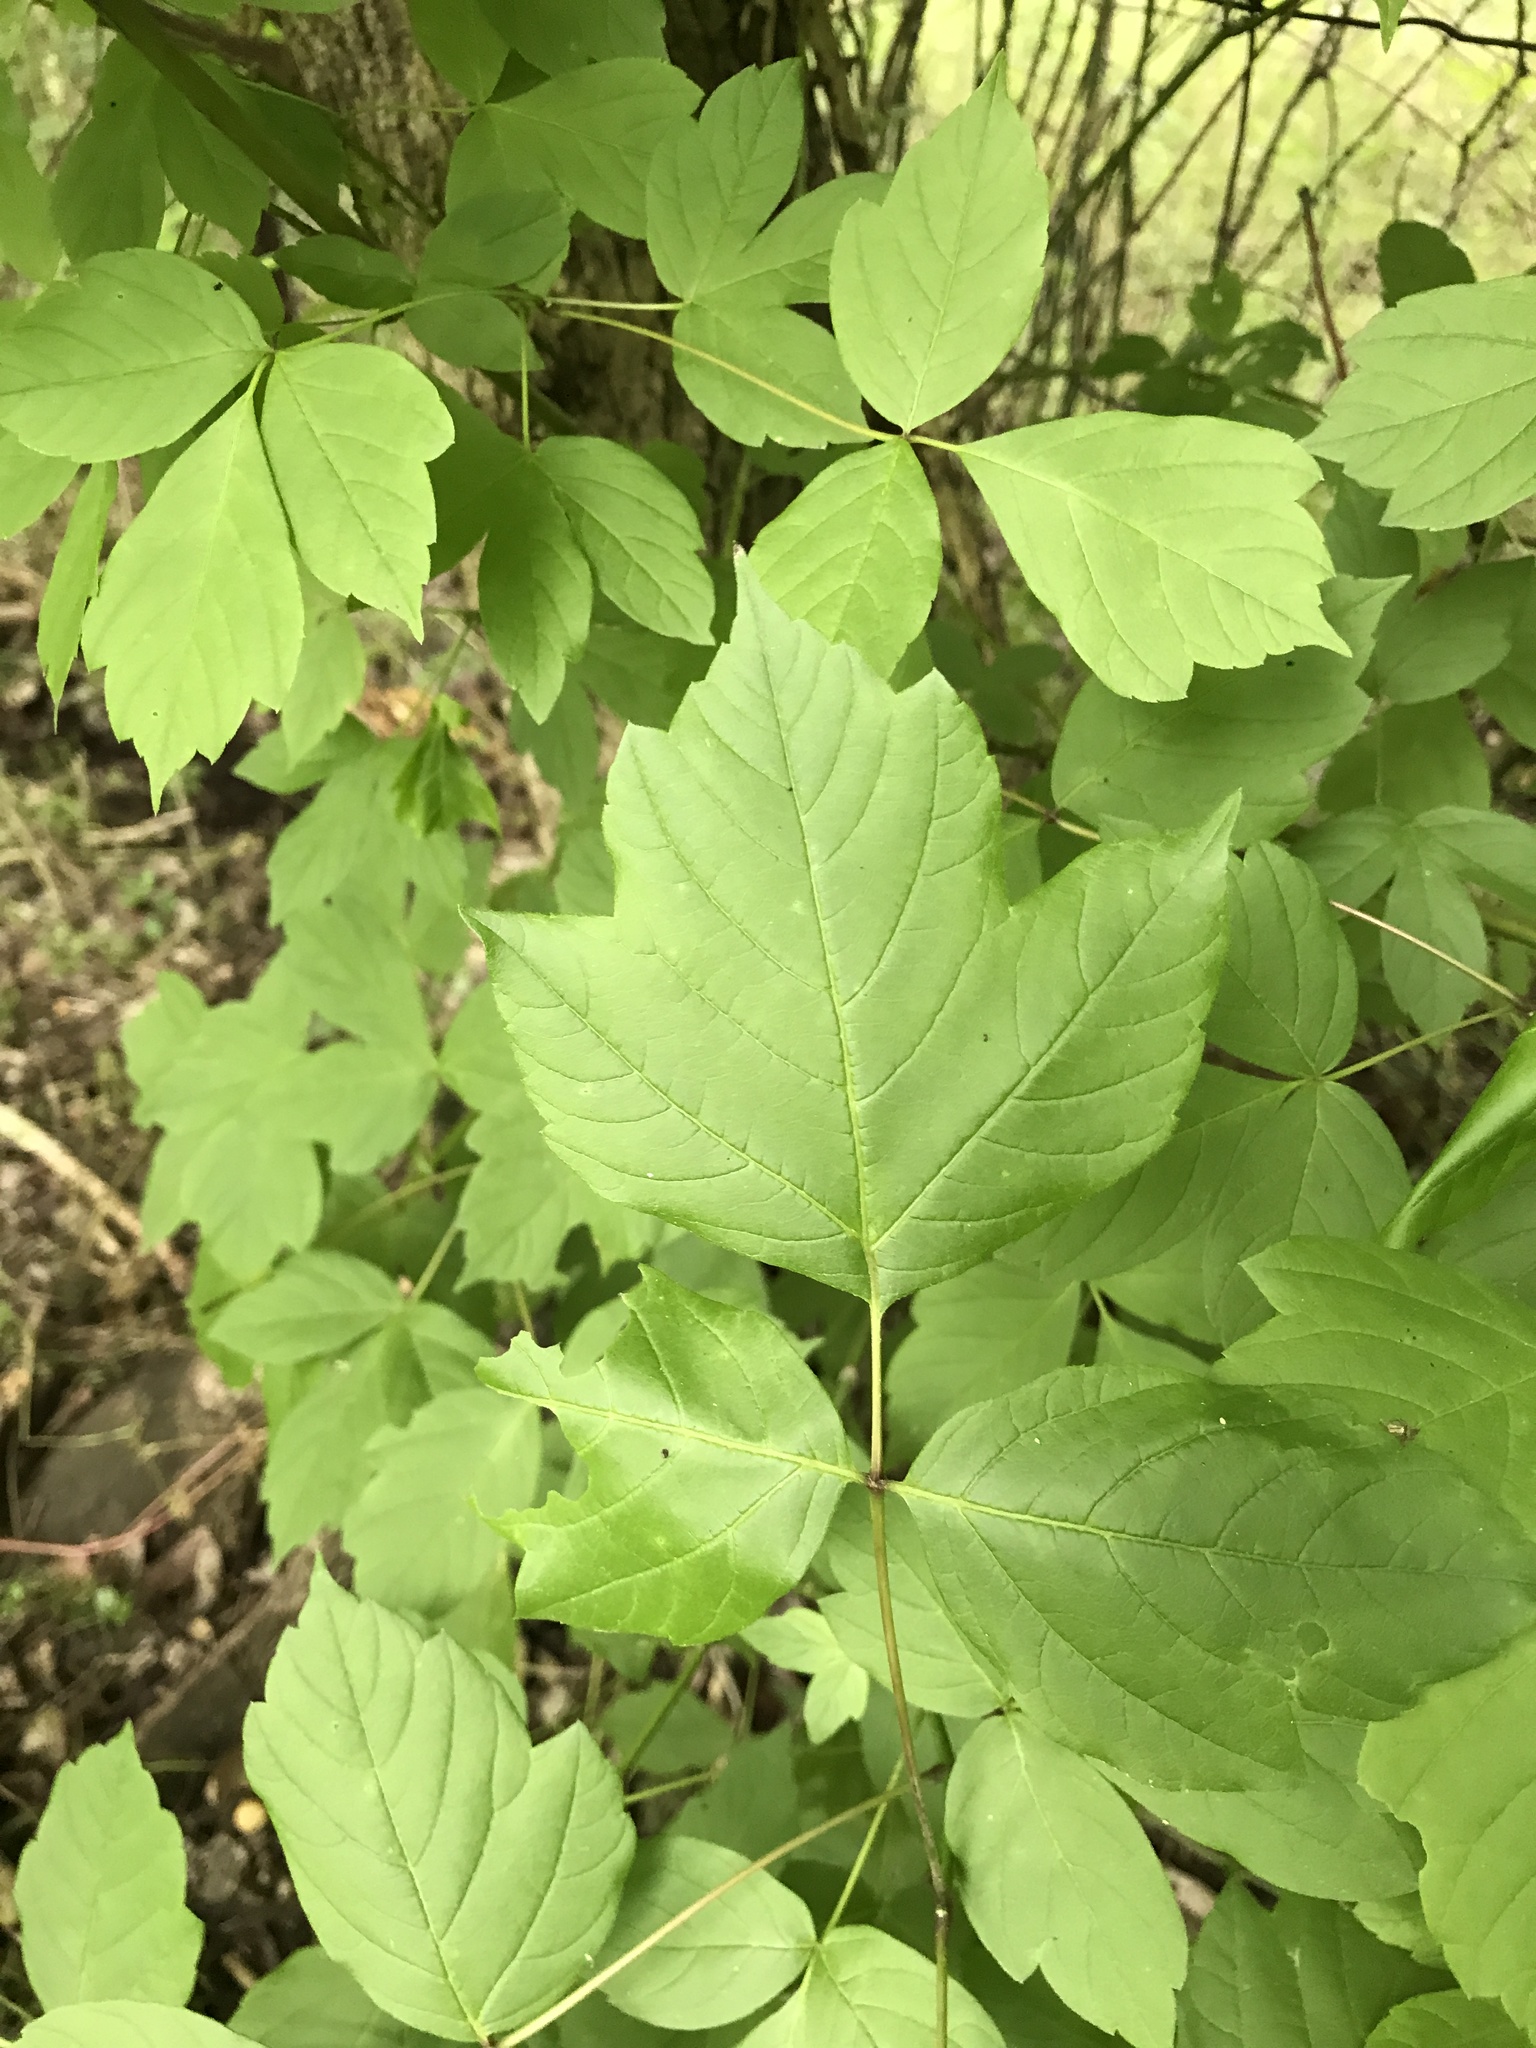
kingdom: Plantae
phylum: Tracheophyta
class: Magnoliopsida
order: Sapindales
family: Sapindaceae
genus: Acer
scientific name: Acer negundo
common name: Ashleaf maple
